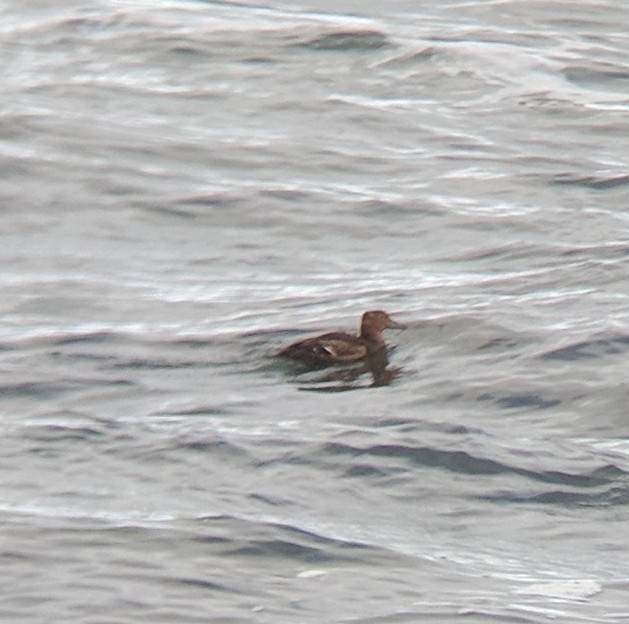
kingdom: Animalia
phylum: Chordata
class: Aves
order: Anseriformes
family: Anatidae
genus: Polysticta
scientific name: Polysticta stelleri
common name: Steller's eider
